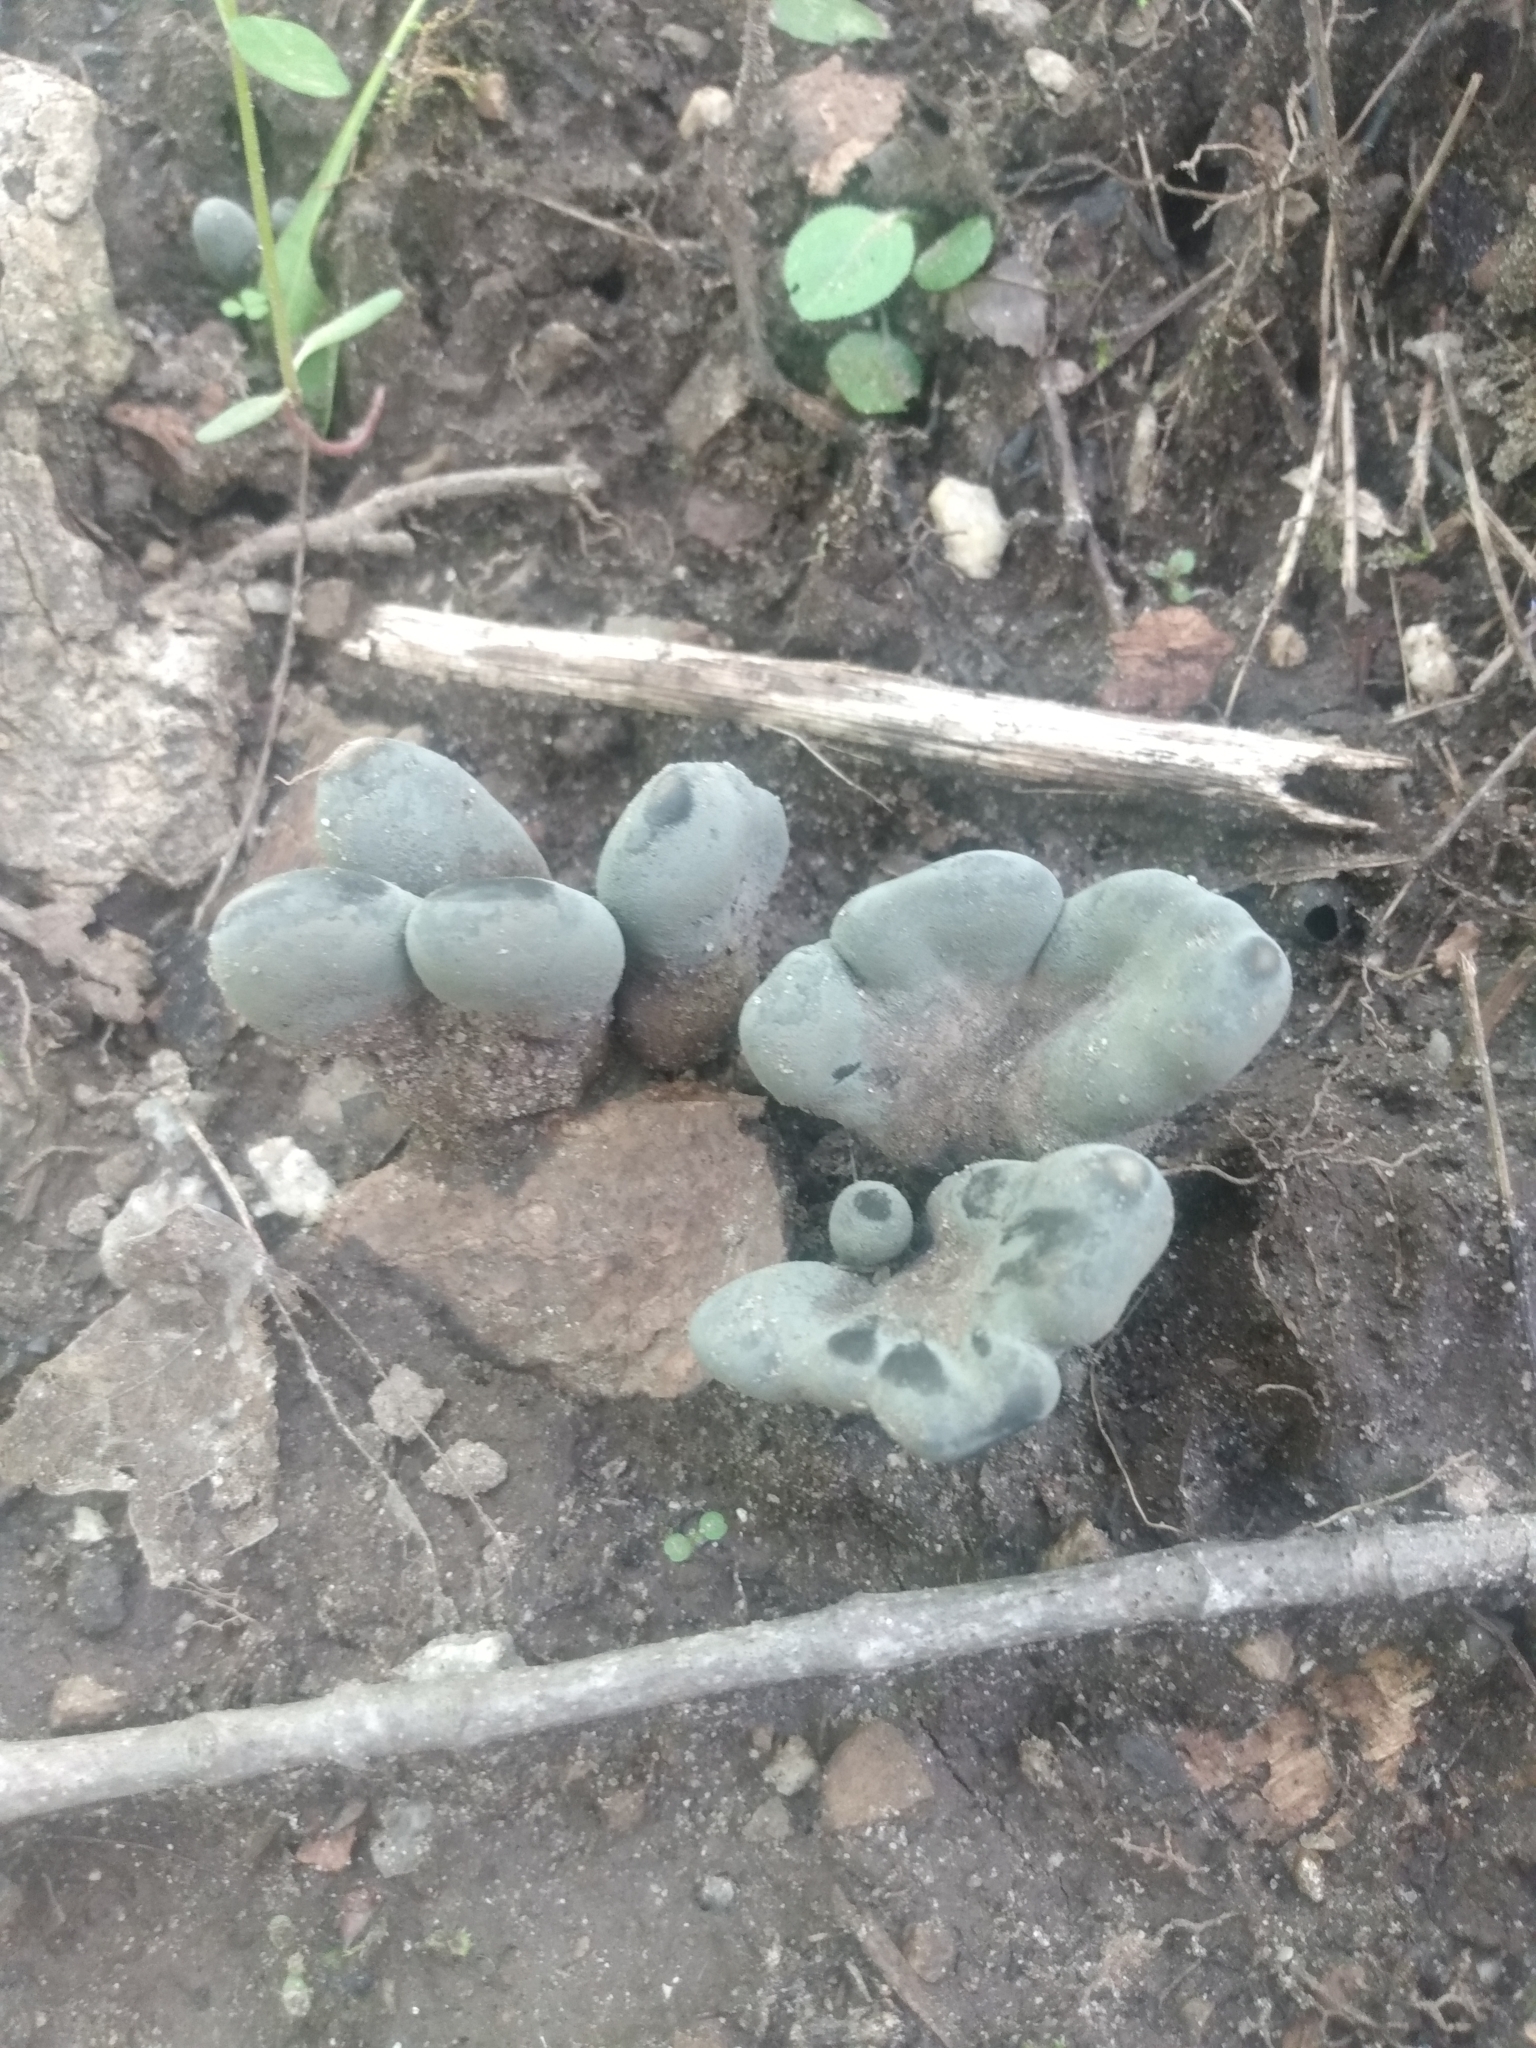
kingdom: Fungi
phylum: Ascomycota
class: Sordariomycetes
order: Xylariales
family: Xylariaceae
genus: Xylaria
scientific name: Xylaria polymorpha
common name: Dead man's fingers
